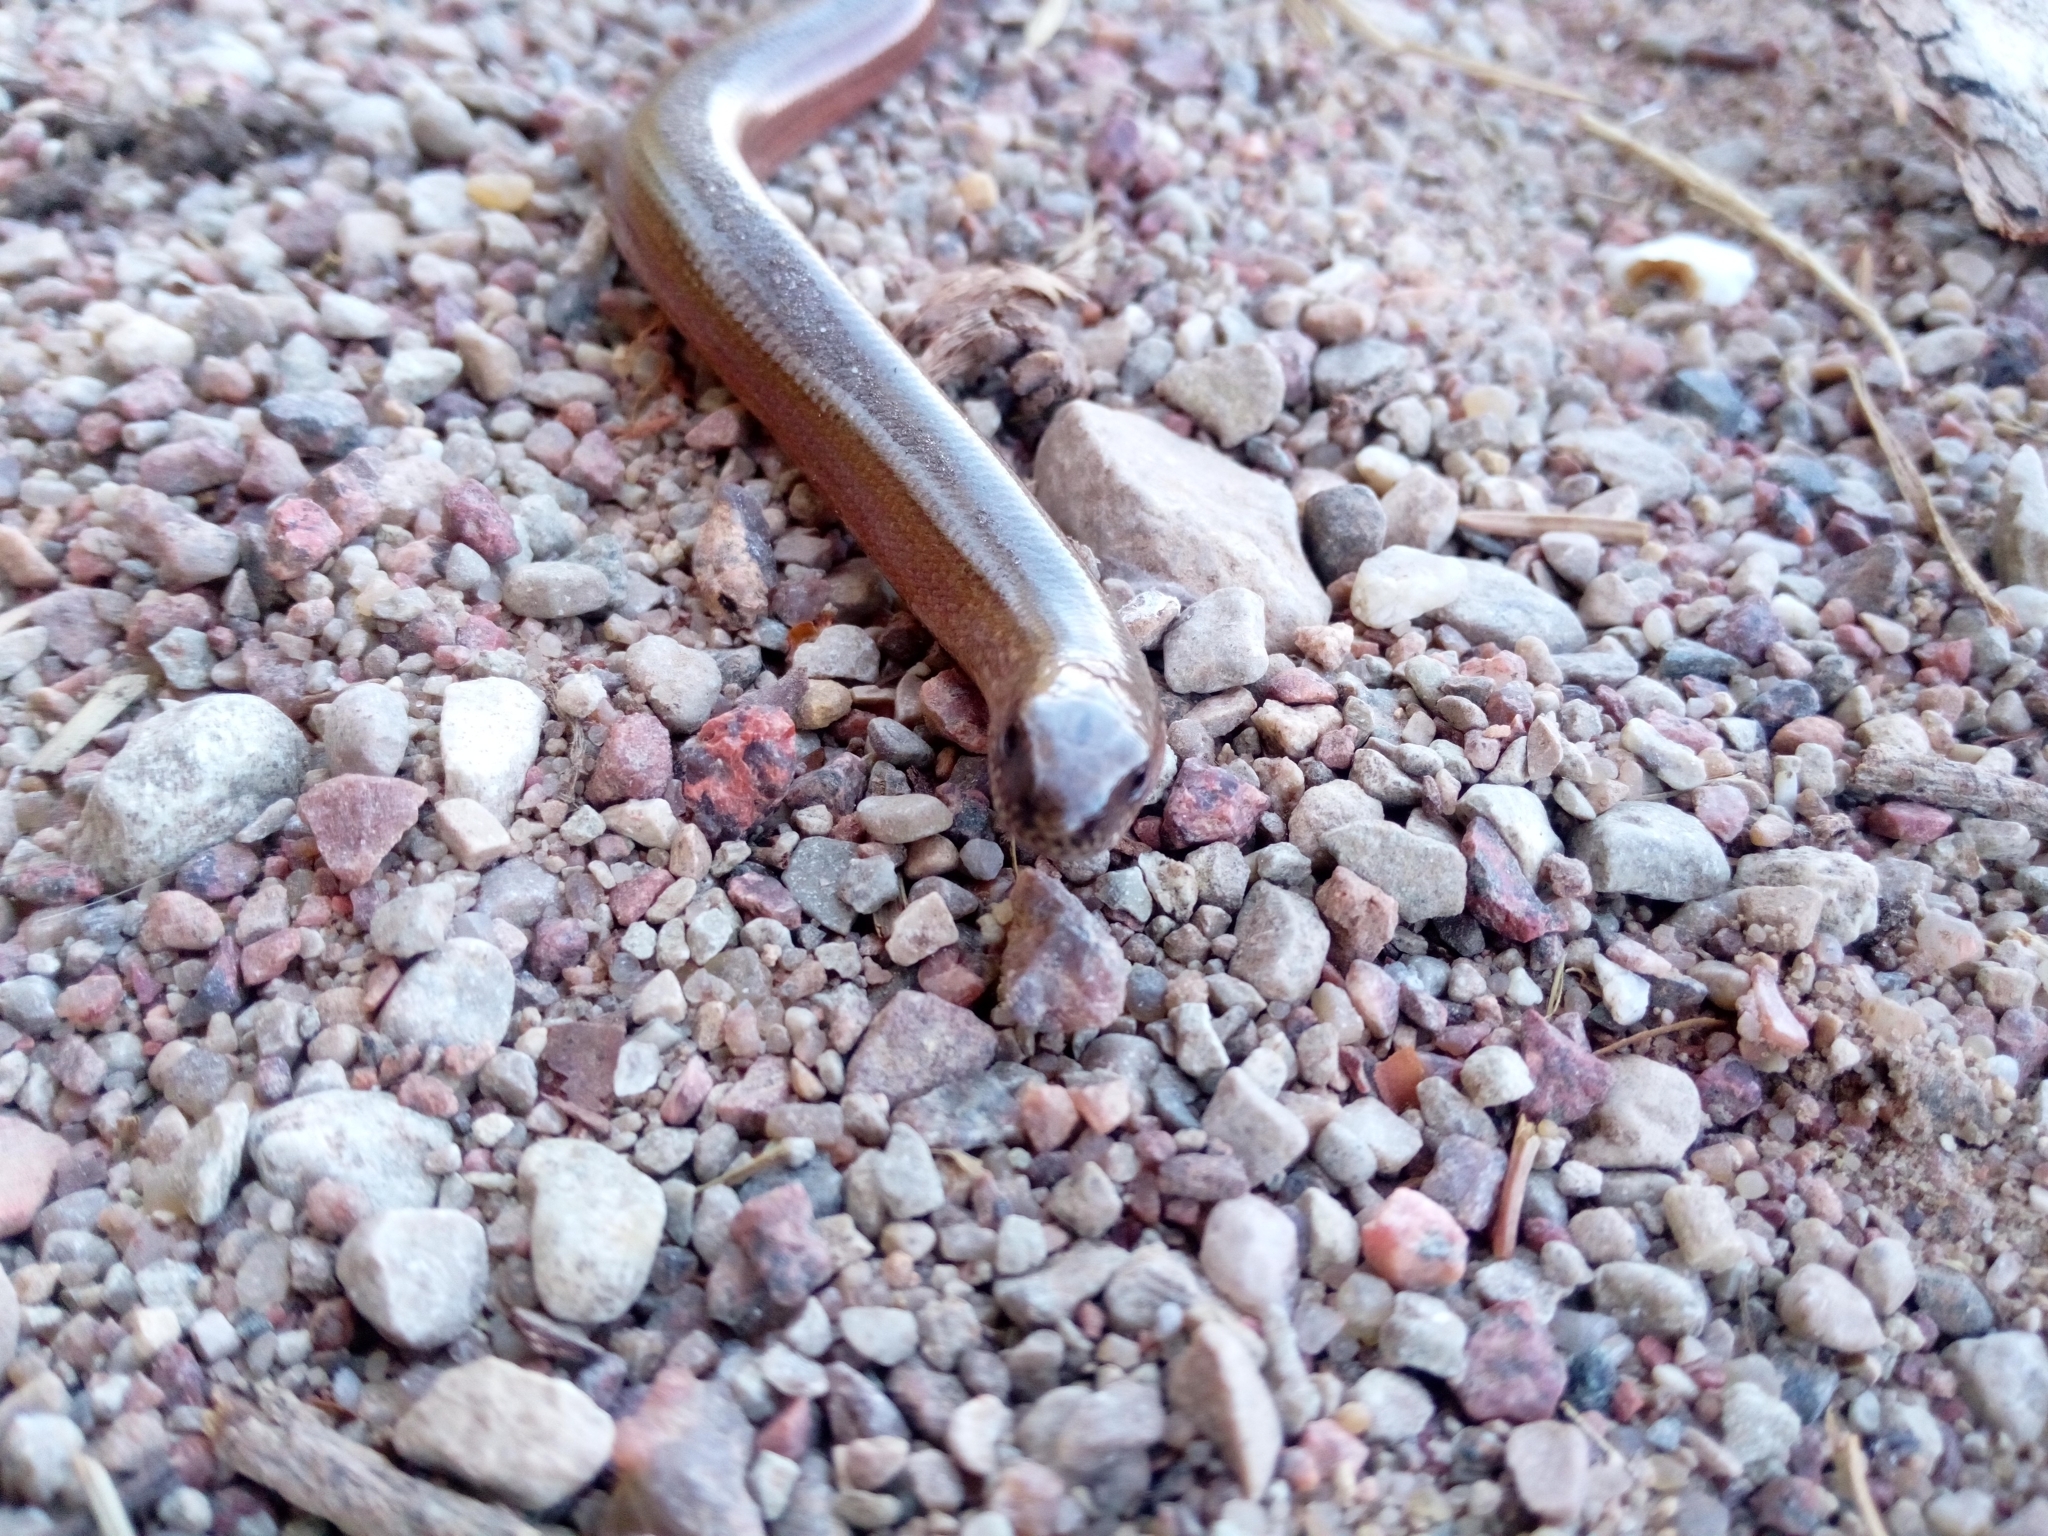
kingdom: Animalia
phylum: Chordata
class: Squamata
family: Anguidae
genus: Anguis
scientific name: Anguis colchica
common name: Slow worm
